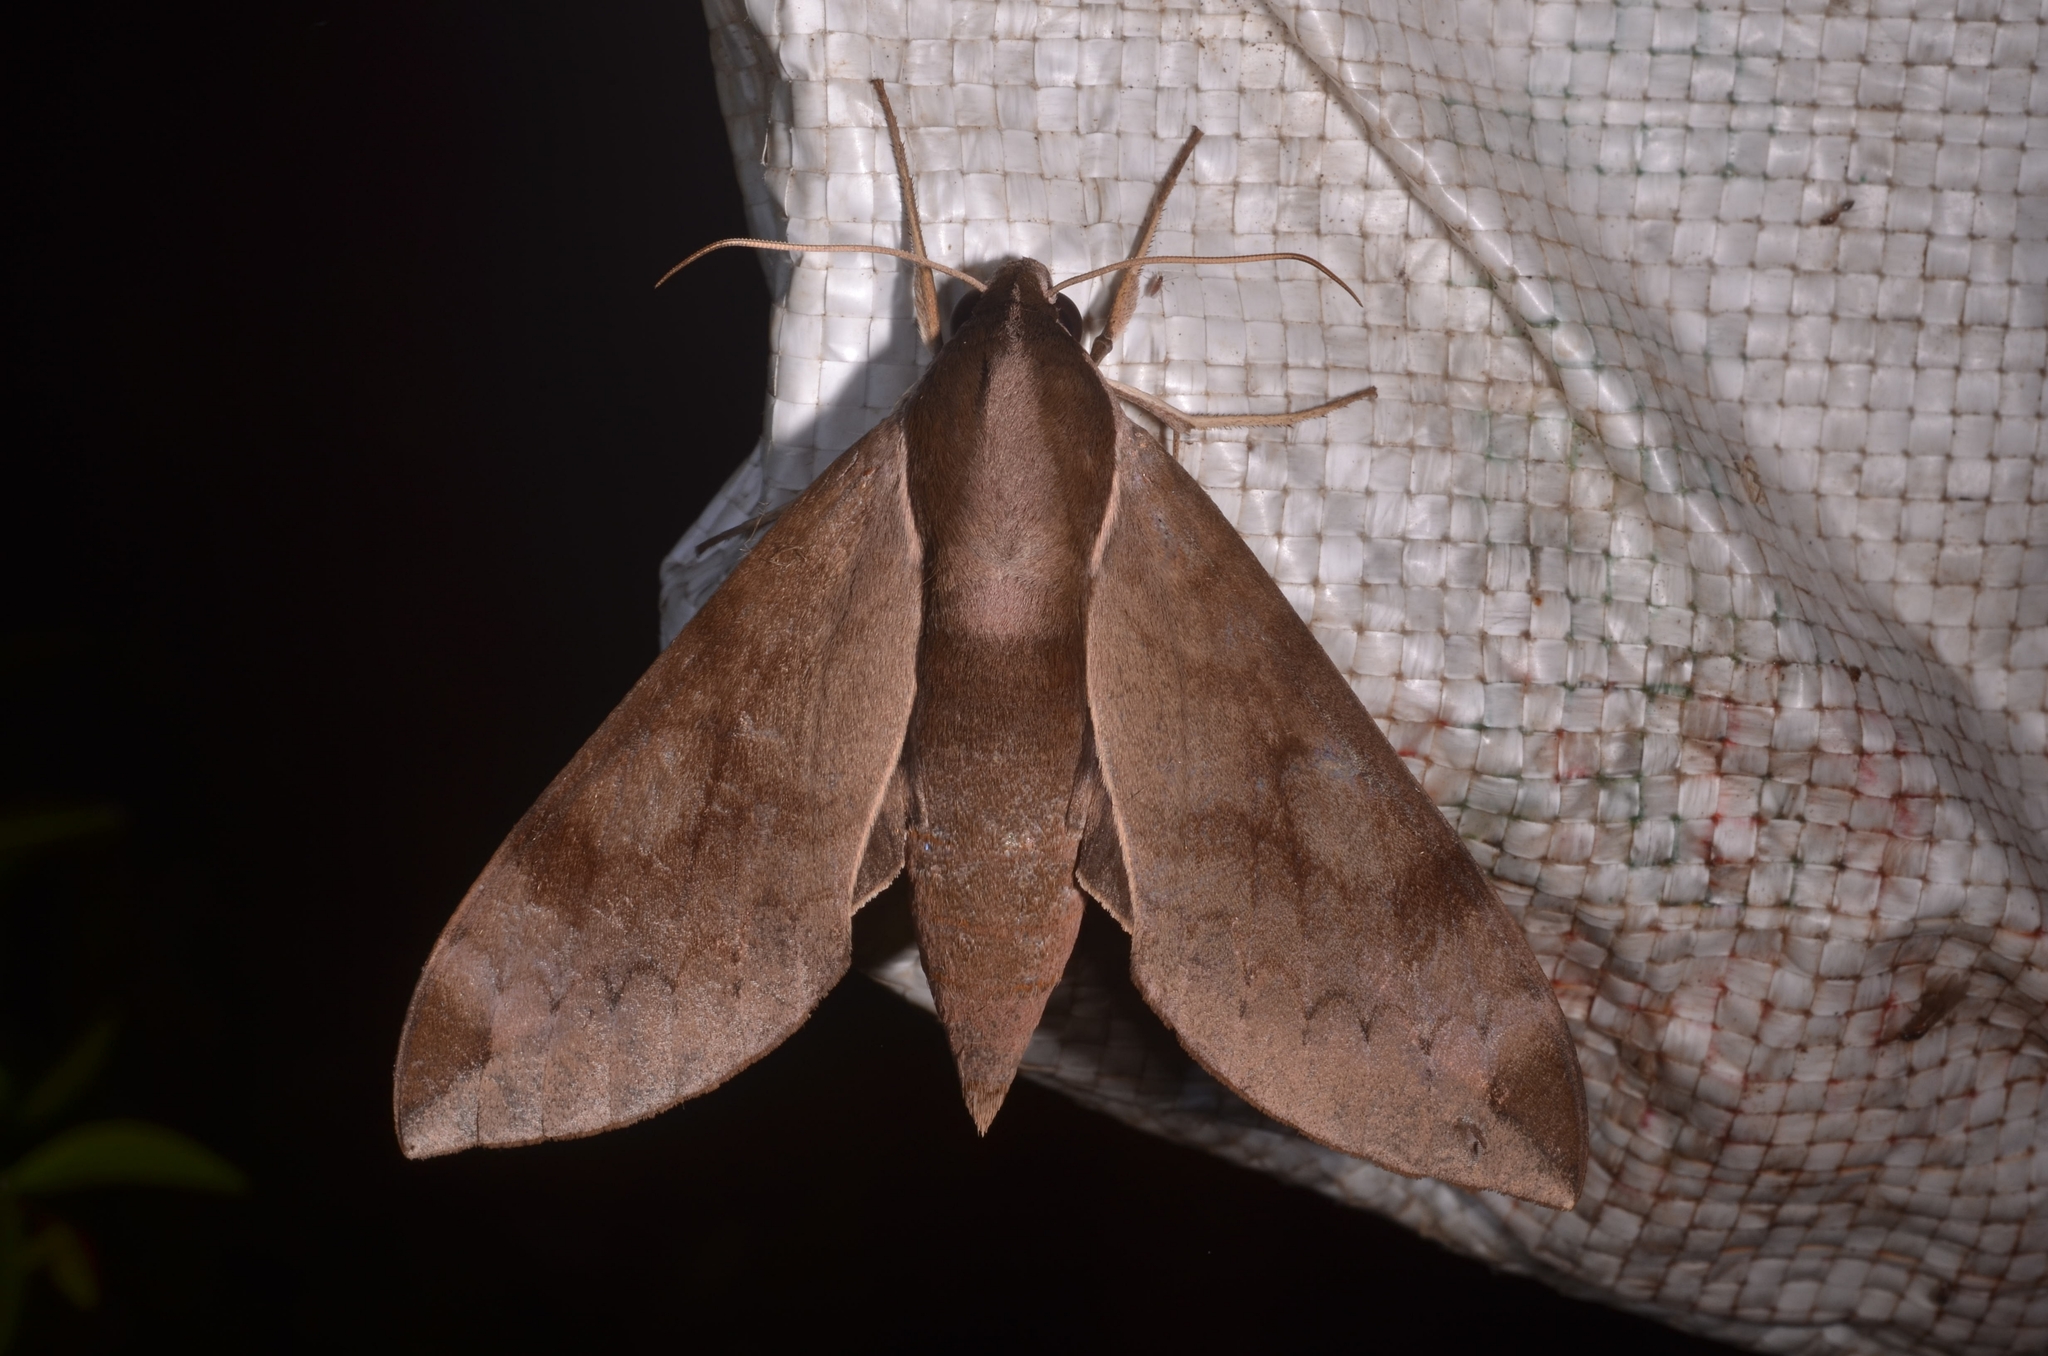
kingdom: Animalia
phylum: Arthropoda
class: Insecta
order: Lepidoptera
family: Sphingidae
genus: Acosmerycoides
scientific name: Acosmerycoides harterti
